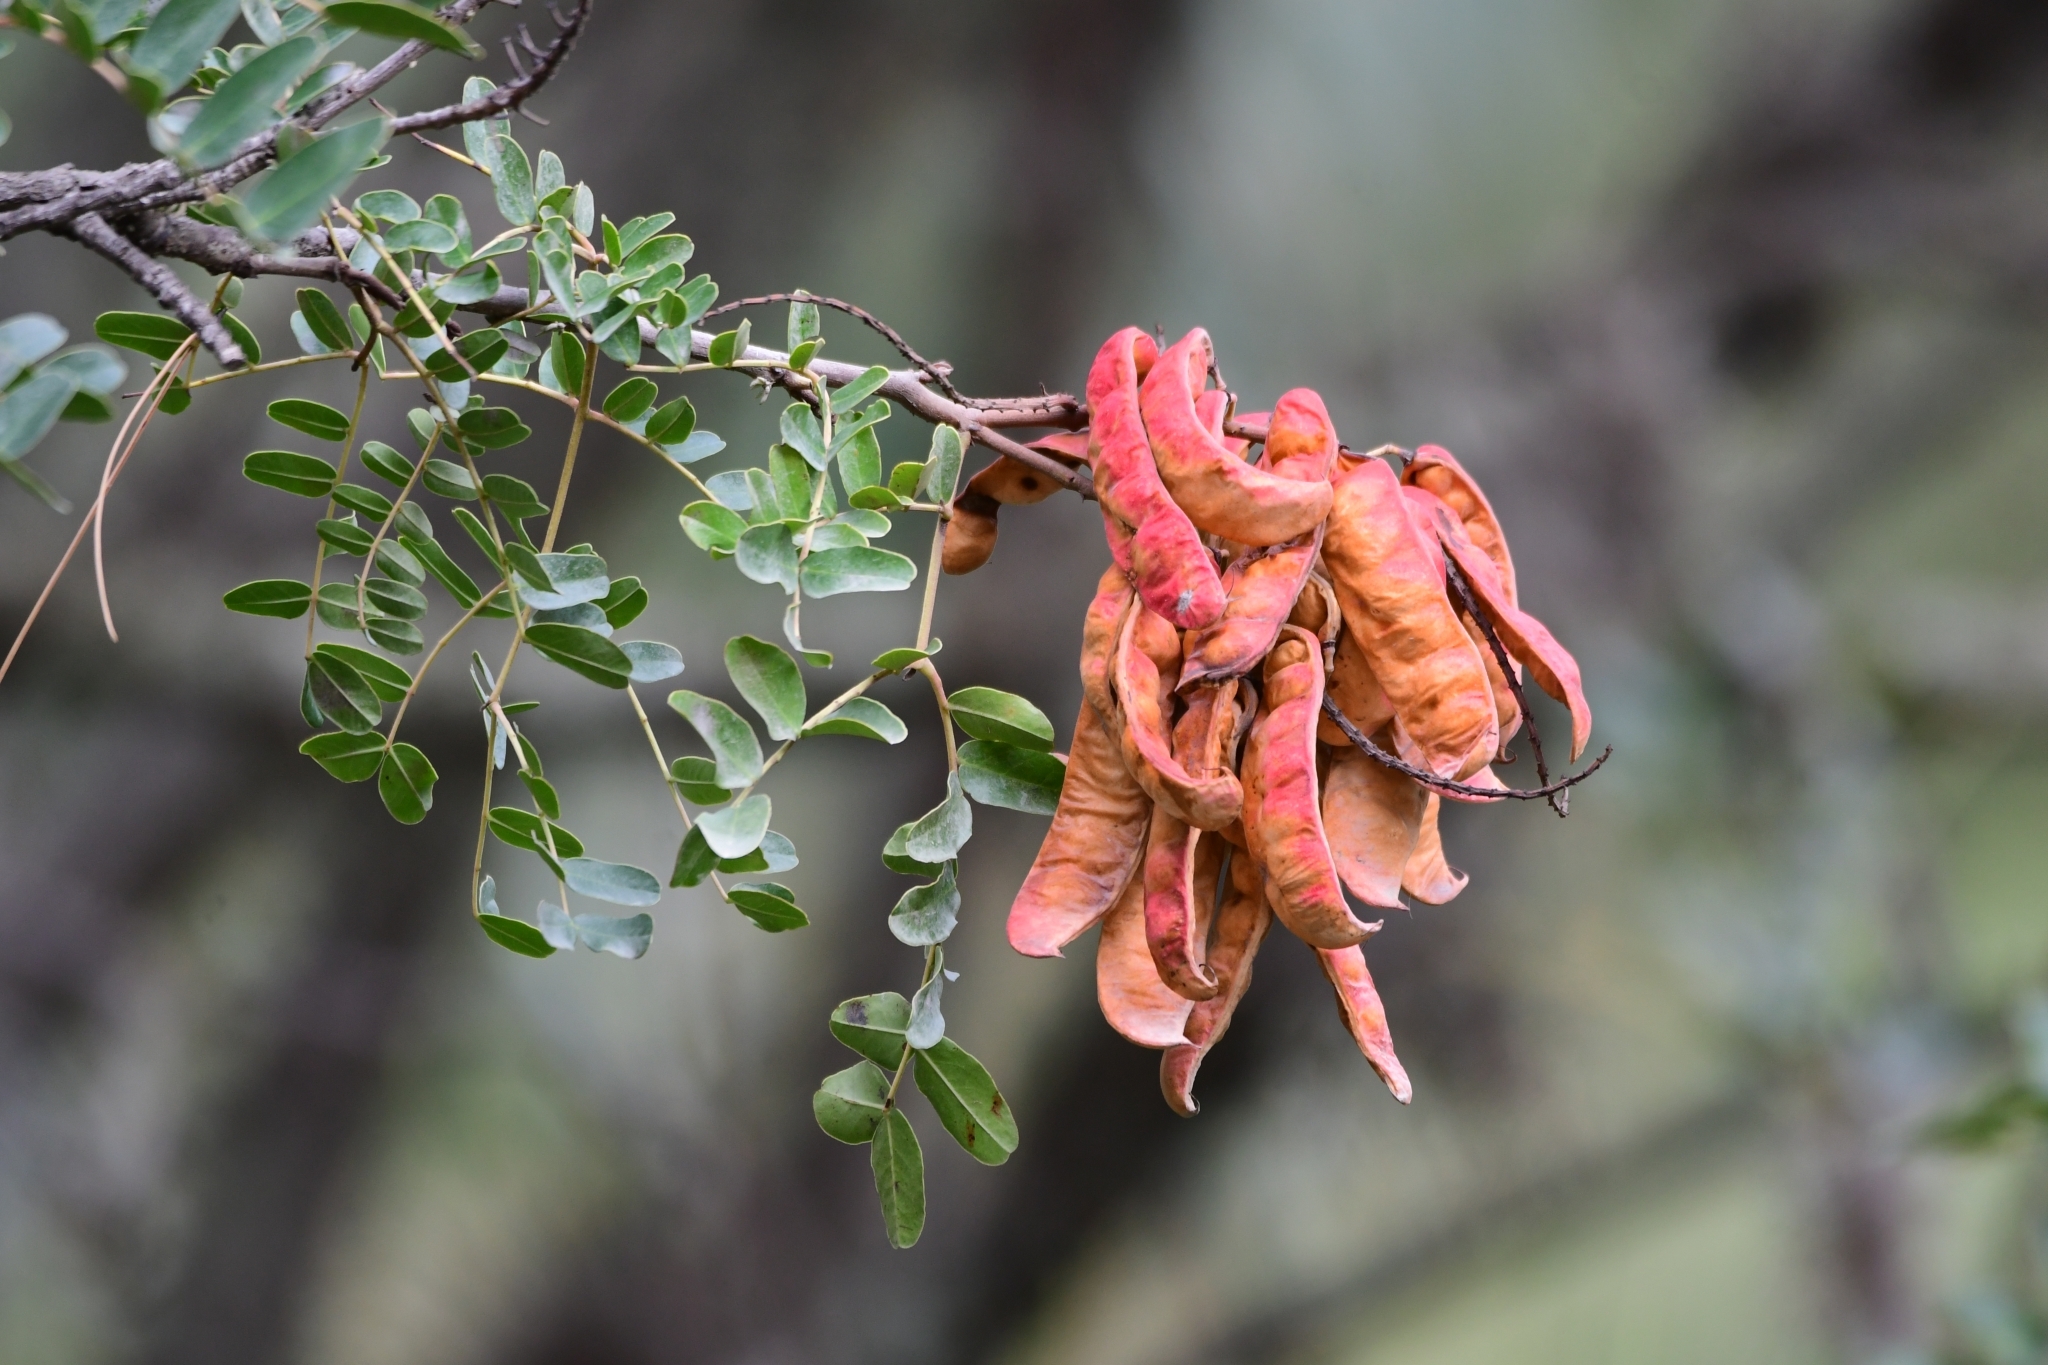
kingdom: Plantae
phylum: Tracheophyta
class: Magnoliopsida
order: Fabales
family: Fabaceae
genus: Tara
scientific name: Tara spinosa
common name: Spiny holdback
